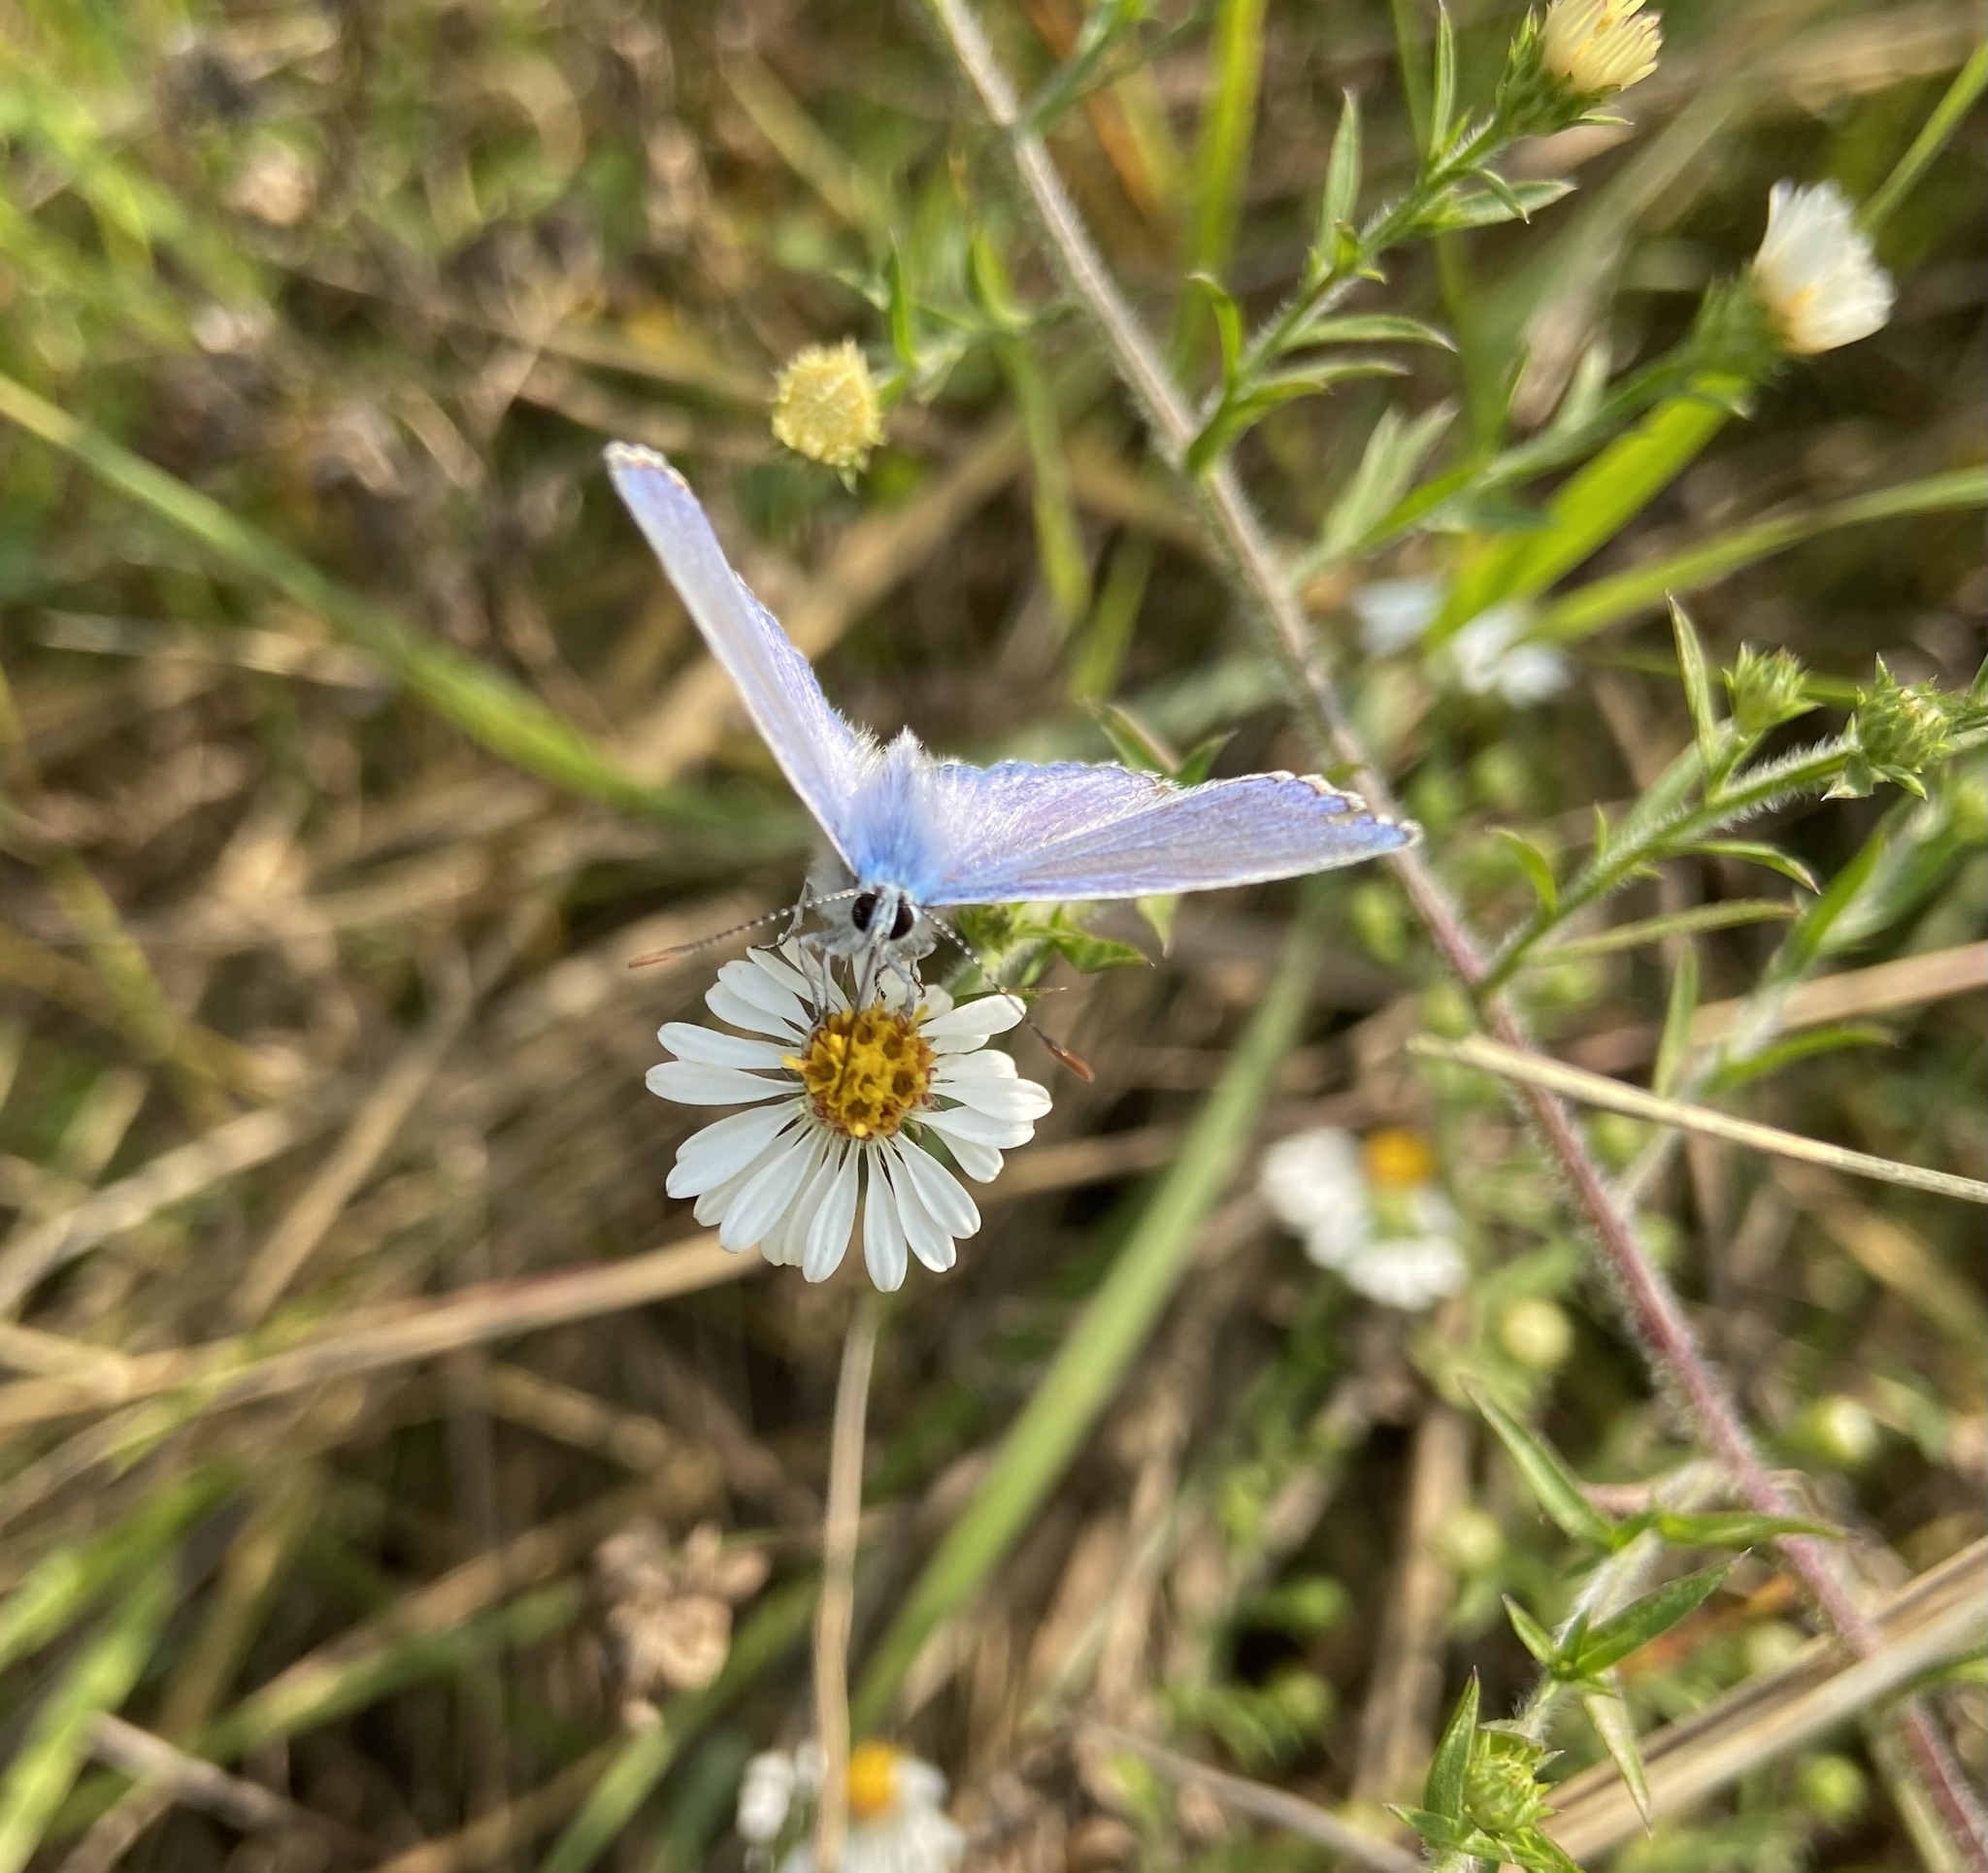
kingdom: Animalia
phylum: Arthropoda
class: Insecta
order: Lepidoptera
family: Lycaenidae
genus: Polyommatus
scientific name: Polyommatus icarus
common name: Common blue
